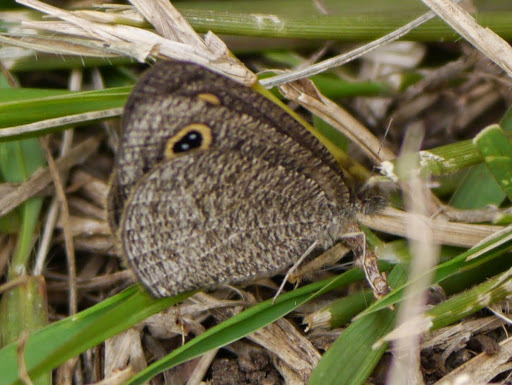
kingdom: Animalia
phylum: Arthropoda
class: Insecta
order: Lepidoptera
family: Nymphalidae
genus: Ypthima
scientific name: Ypthima granulosa
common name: Granular ringlet
